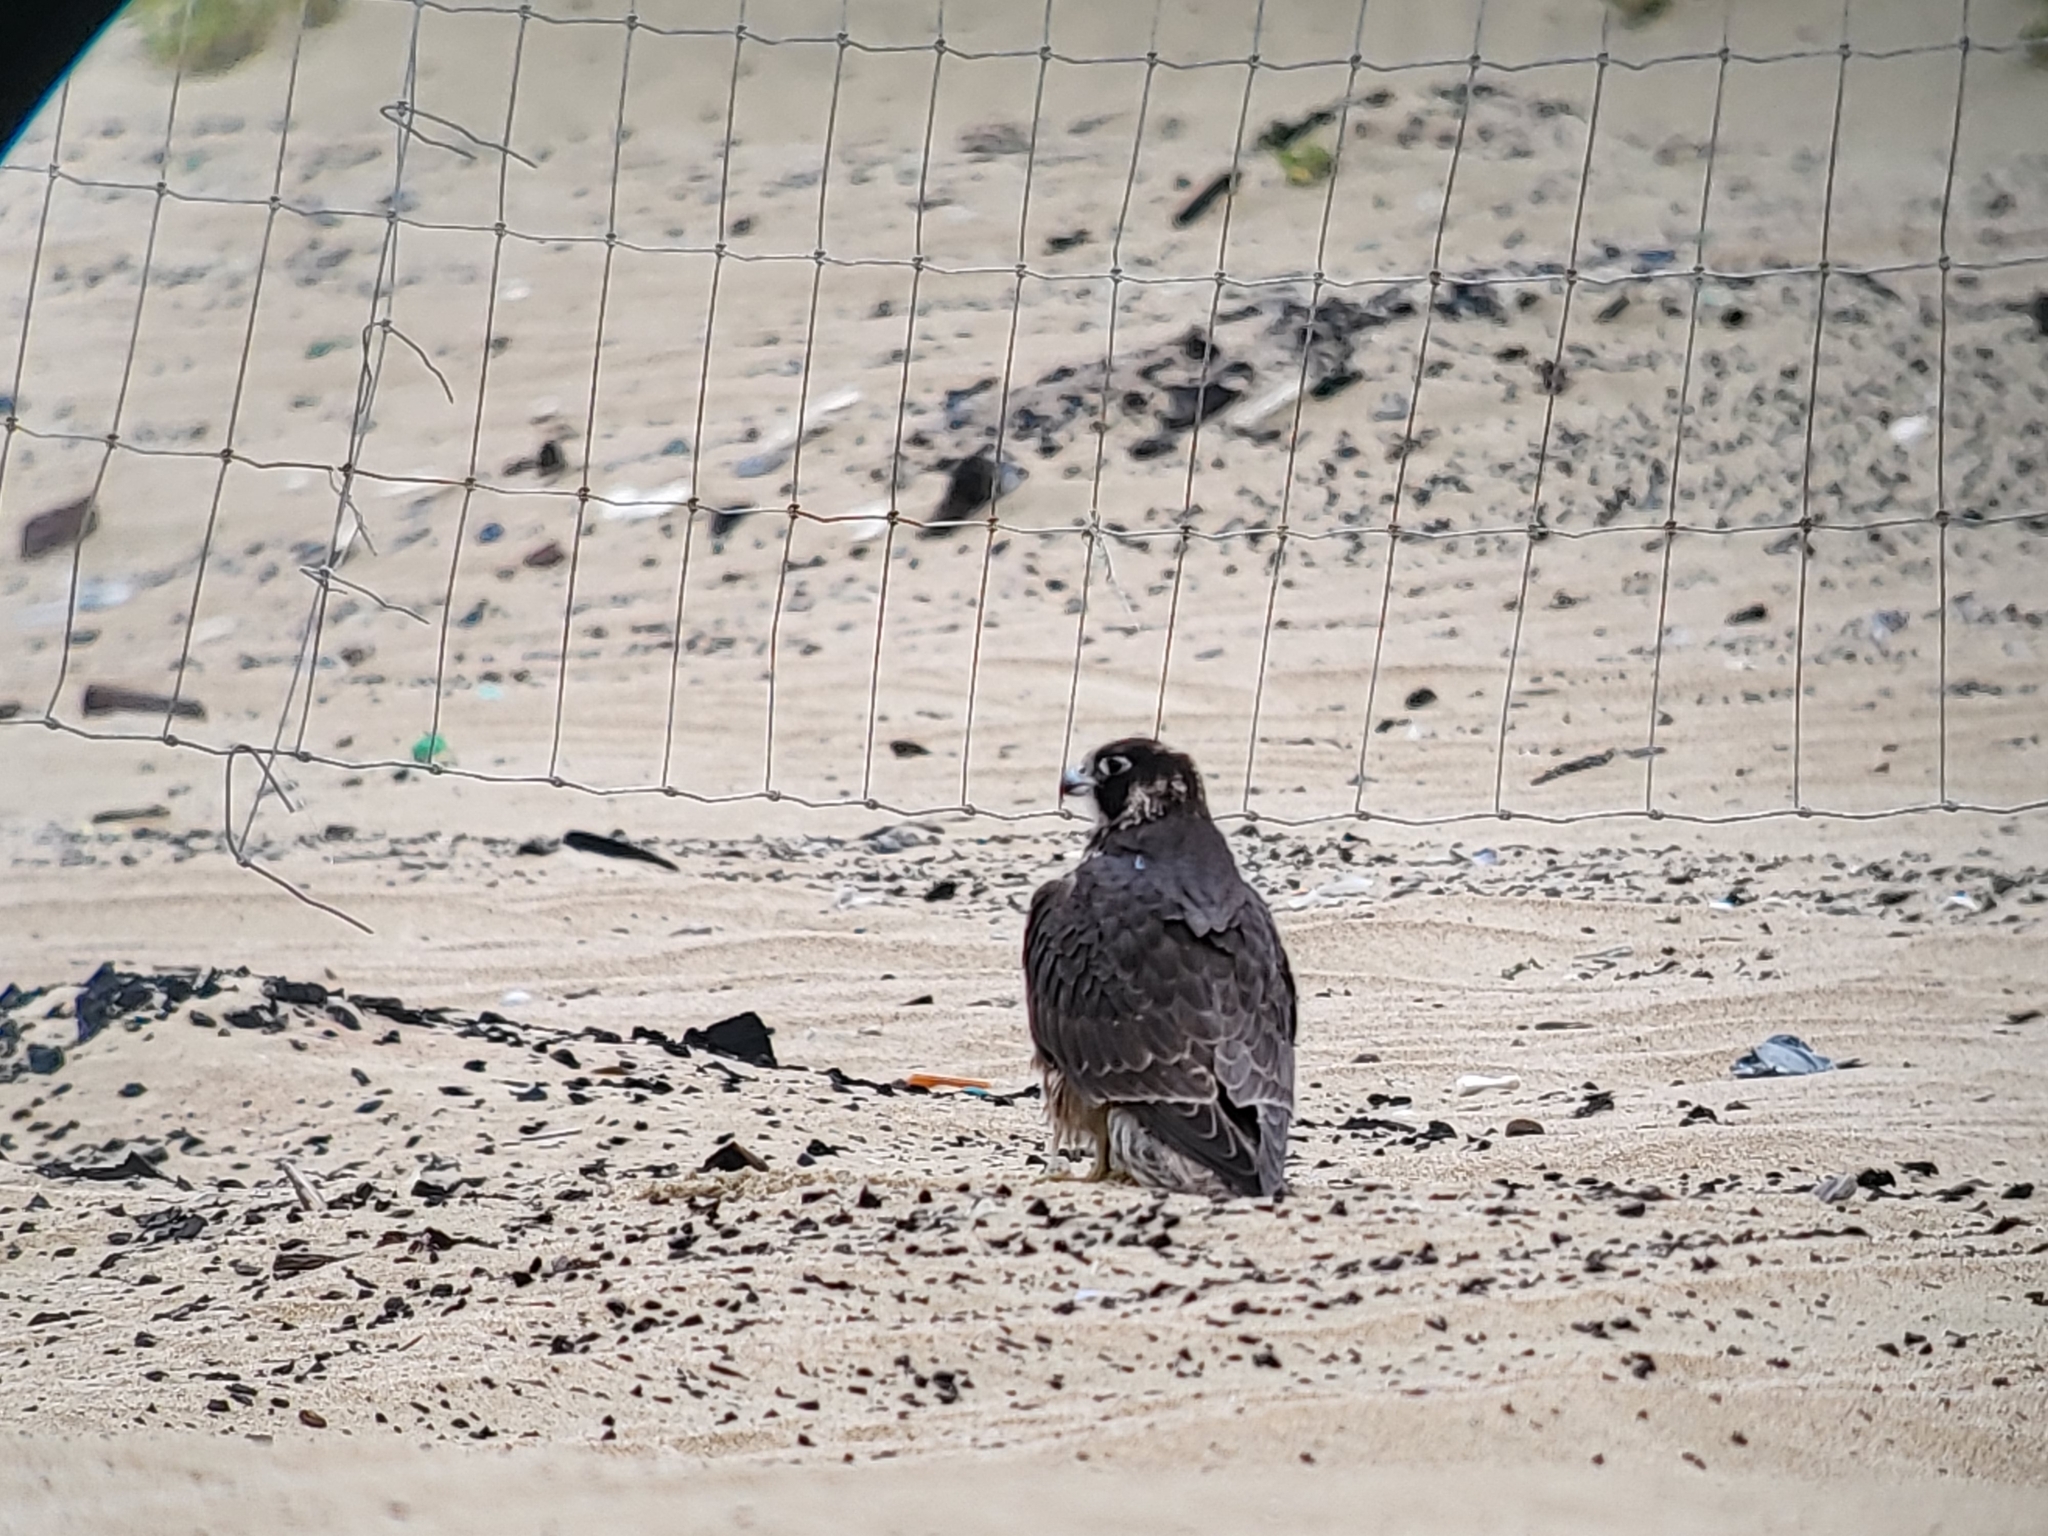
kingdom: Animalia
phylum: Chordata
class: Aves
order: Falconiformes
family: Falconidae
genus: Falco
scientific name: Falco peregrinus
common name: Peregrine falcon
